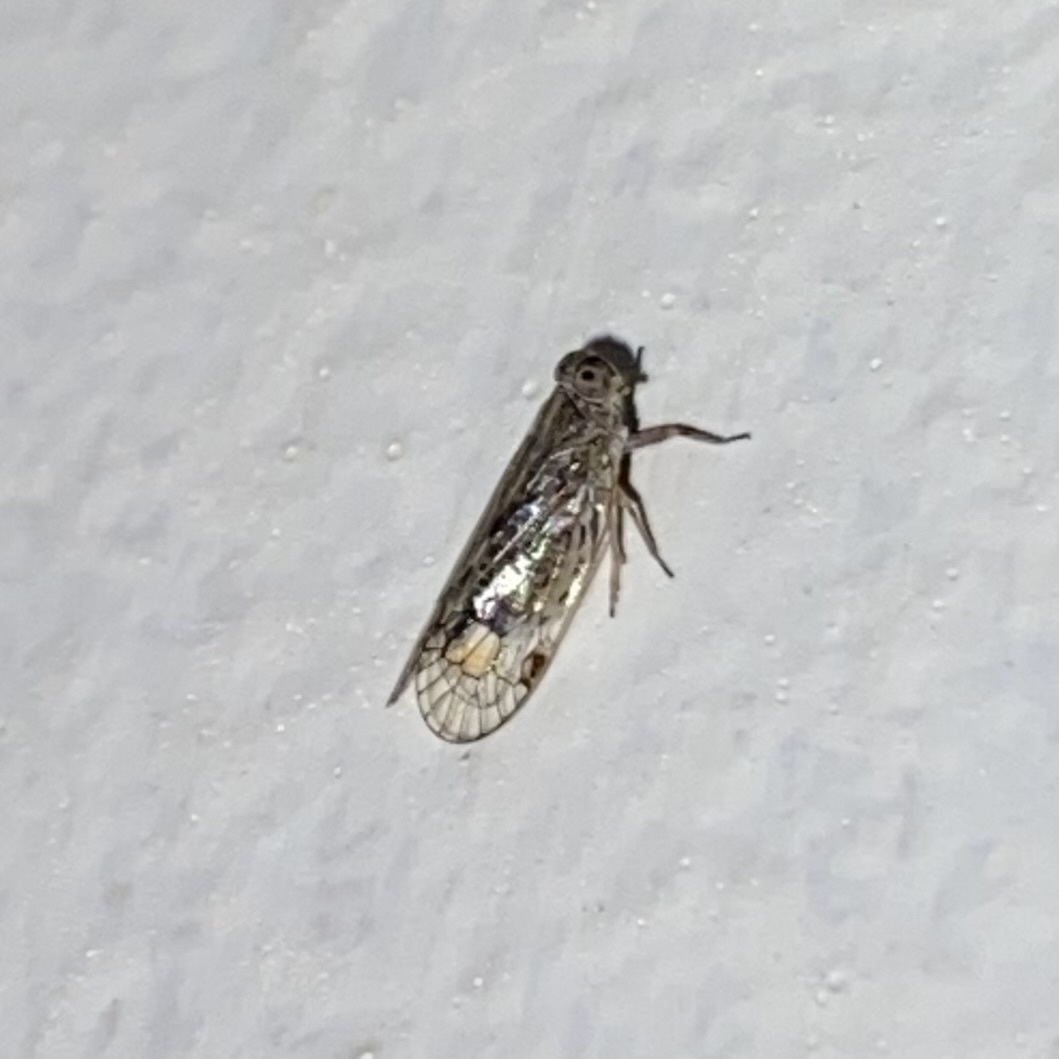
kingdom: Animalia
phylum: Arthropoda
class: Insecta
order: Hemiptera
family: Cixiidae
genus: Oecleus
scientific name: Oecleus
